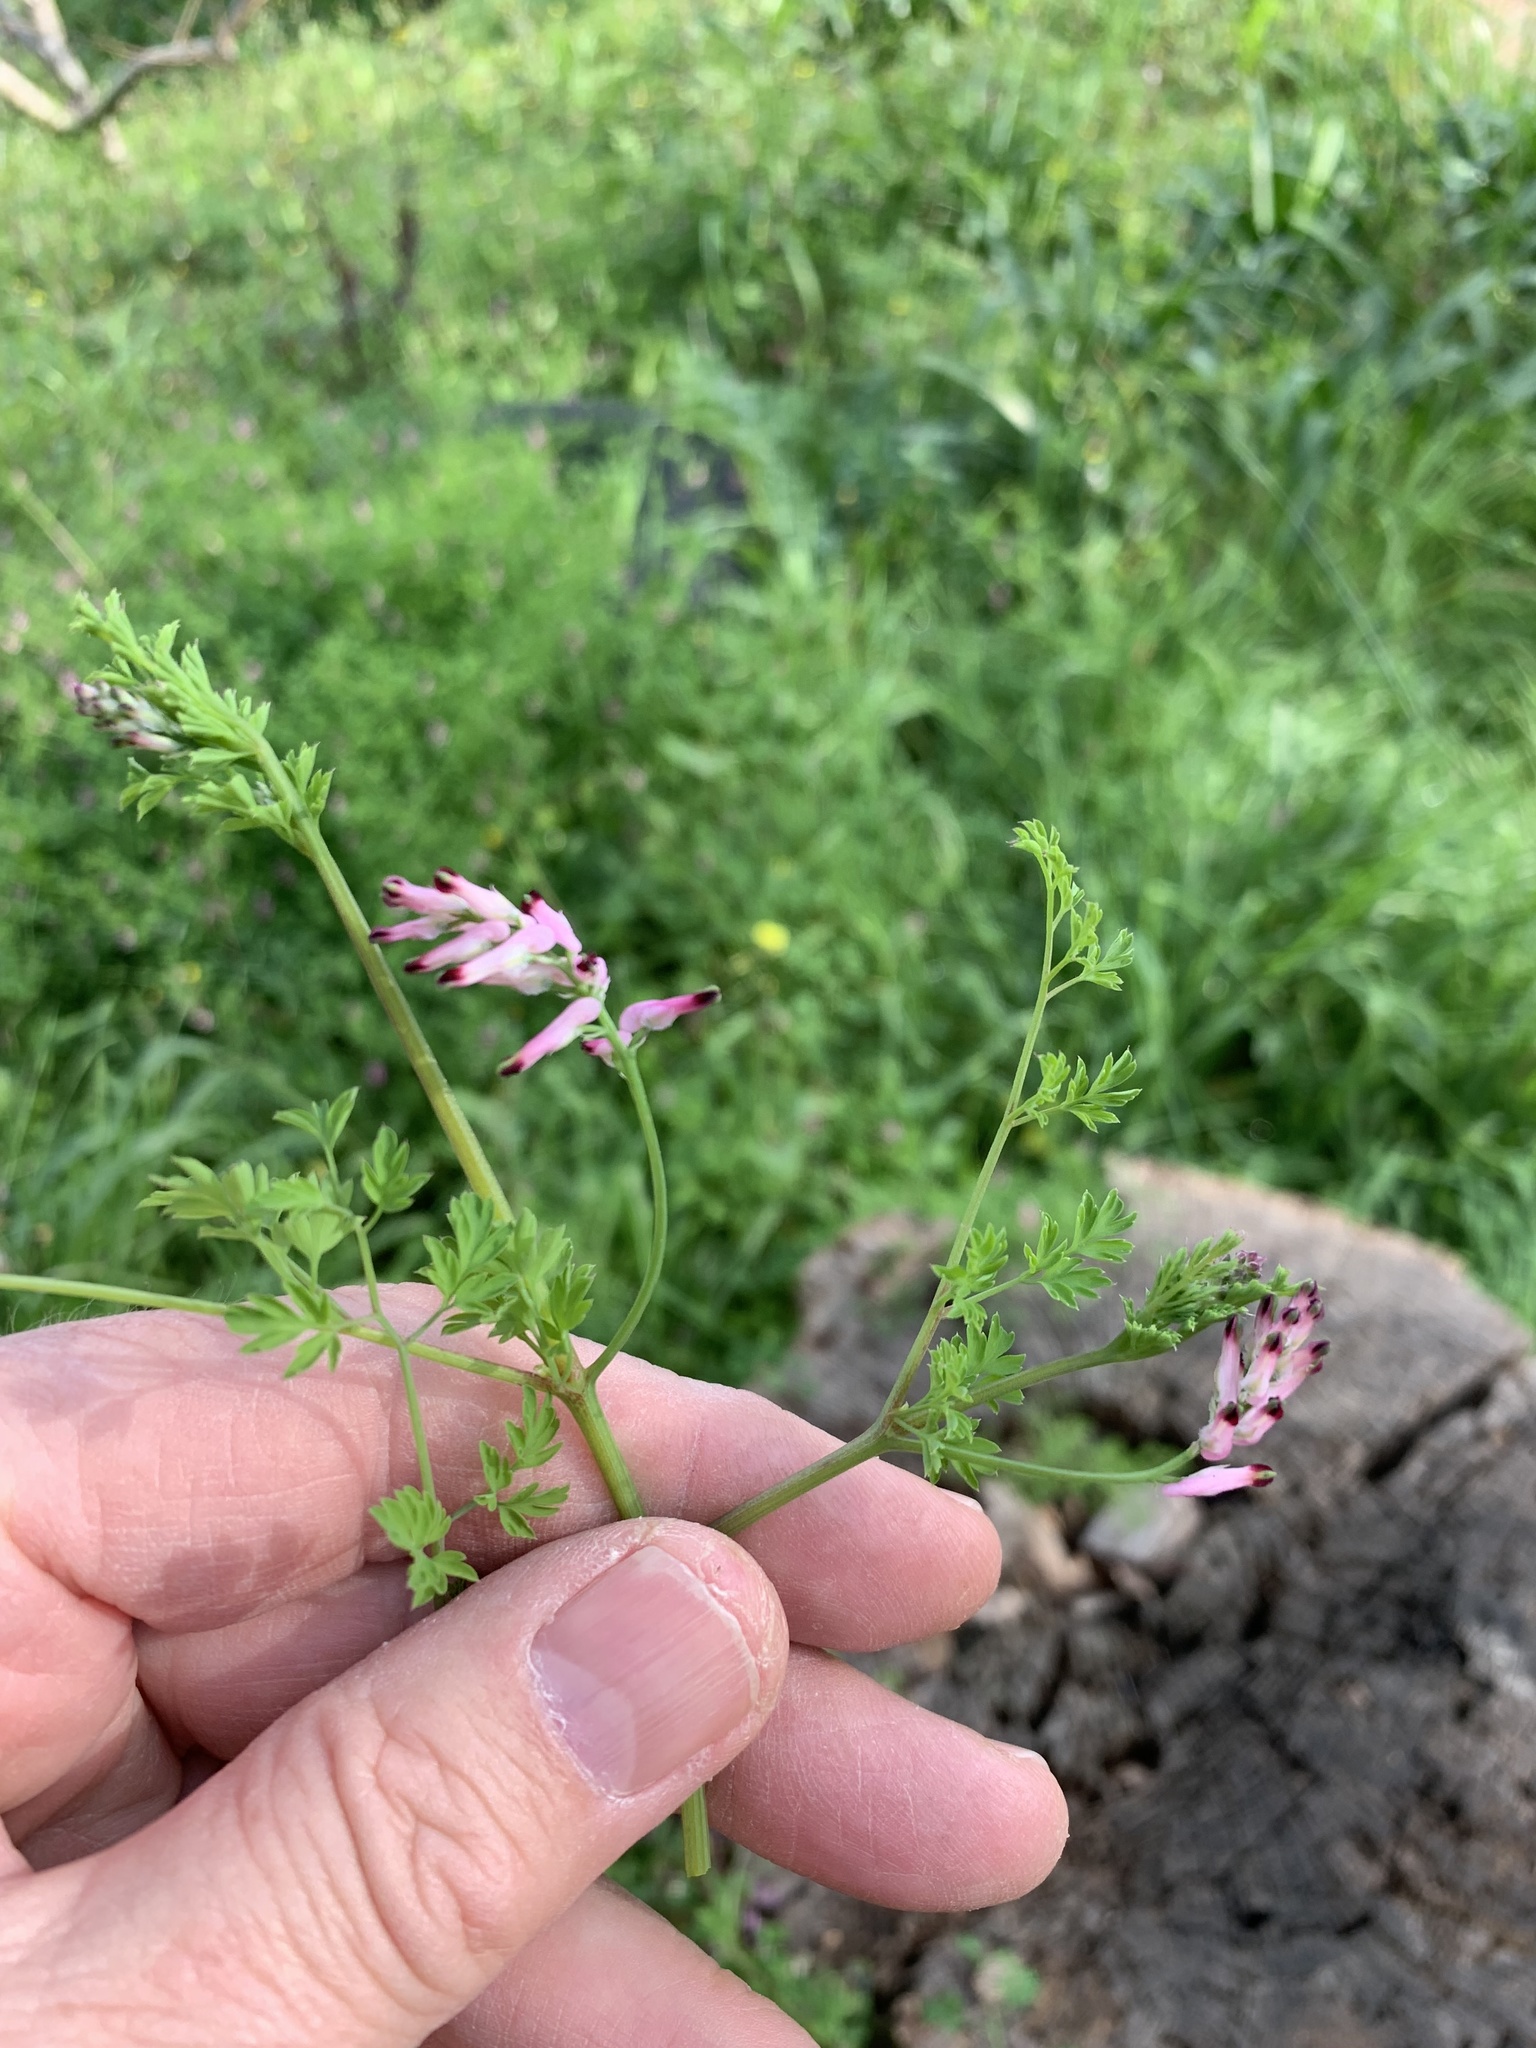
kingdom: Plantae
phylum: Tracheophyta
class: Magnoliopsida
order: Ranunculales
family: Papaveraceae
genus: Fumaria
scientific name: Fumaria muralis
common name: Common ramping-fumitory
